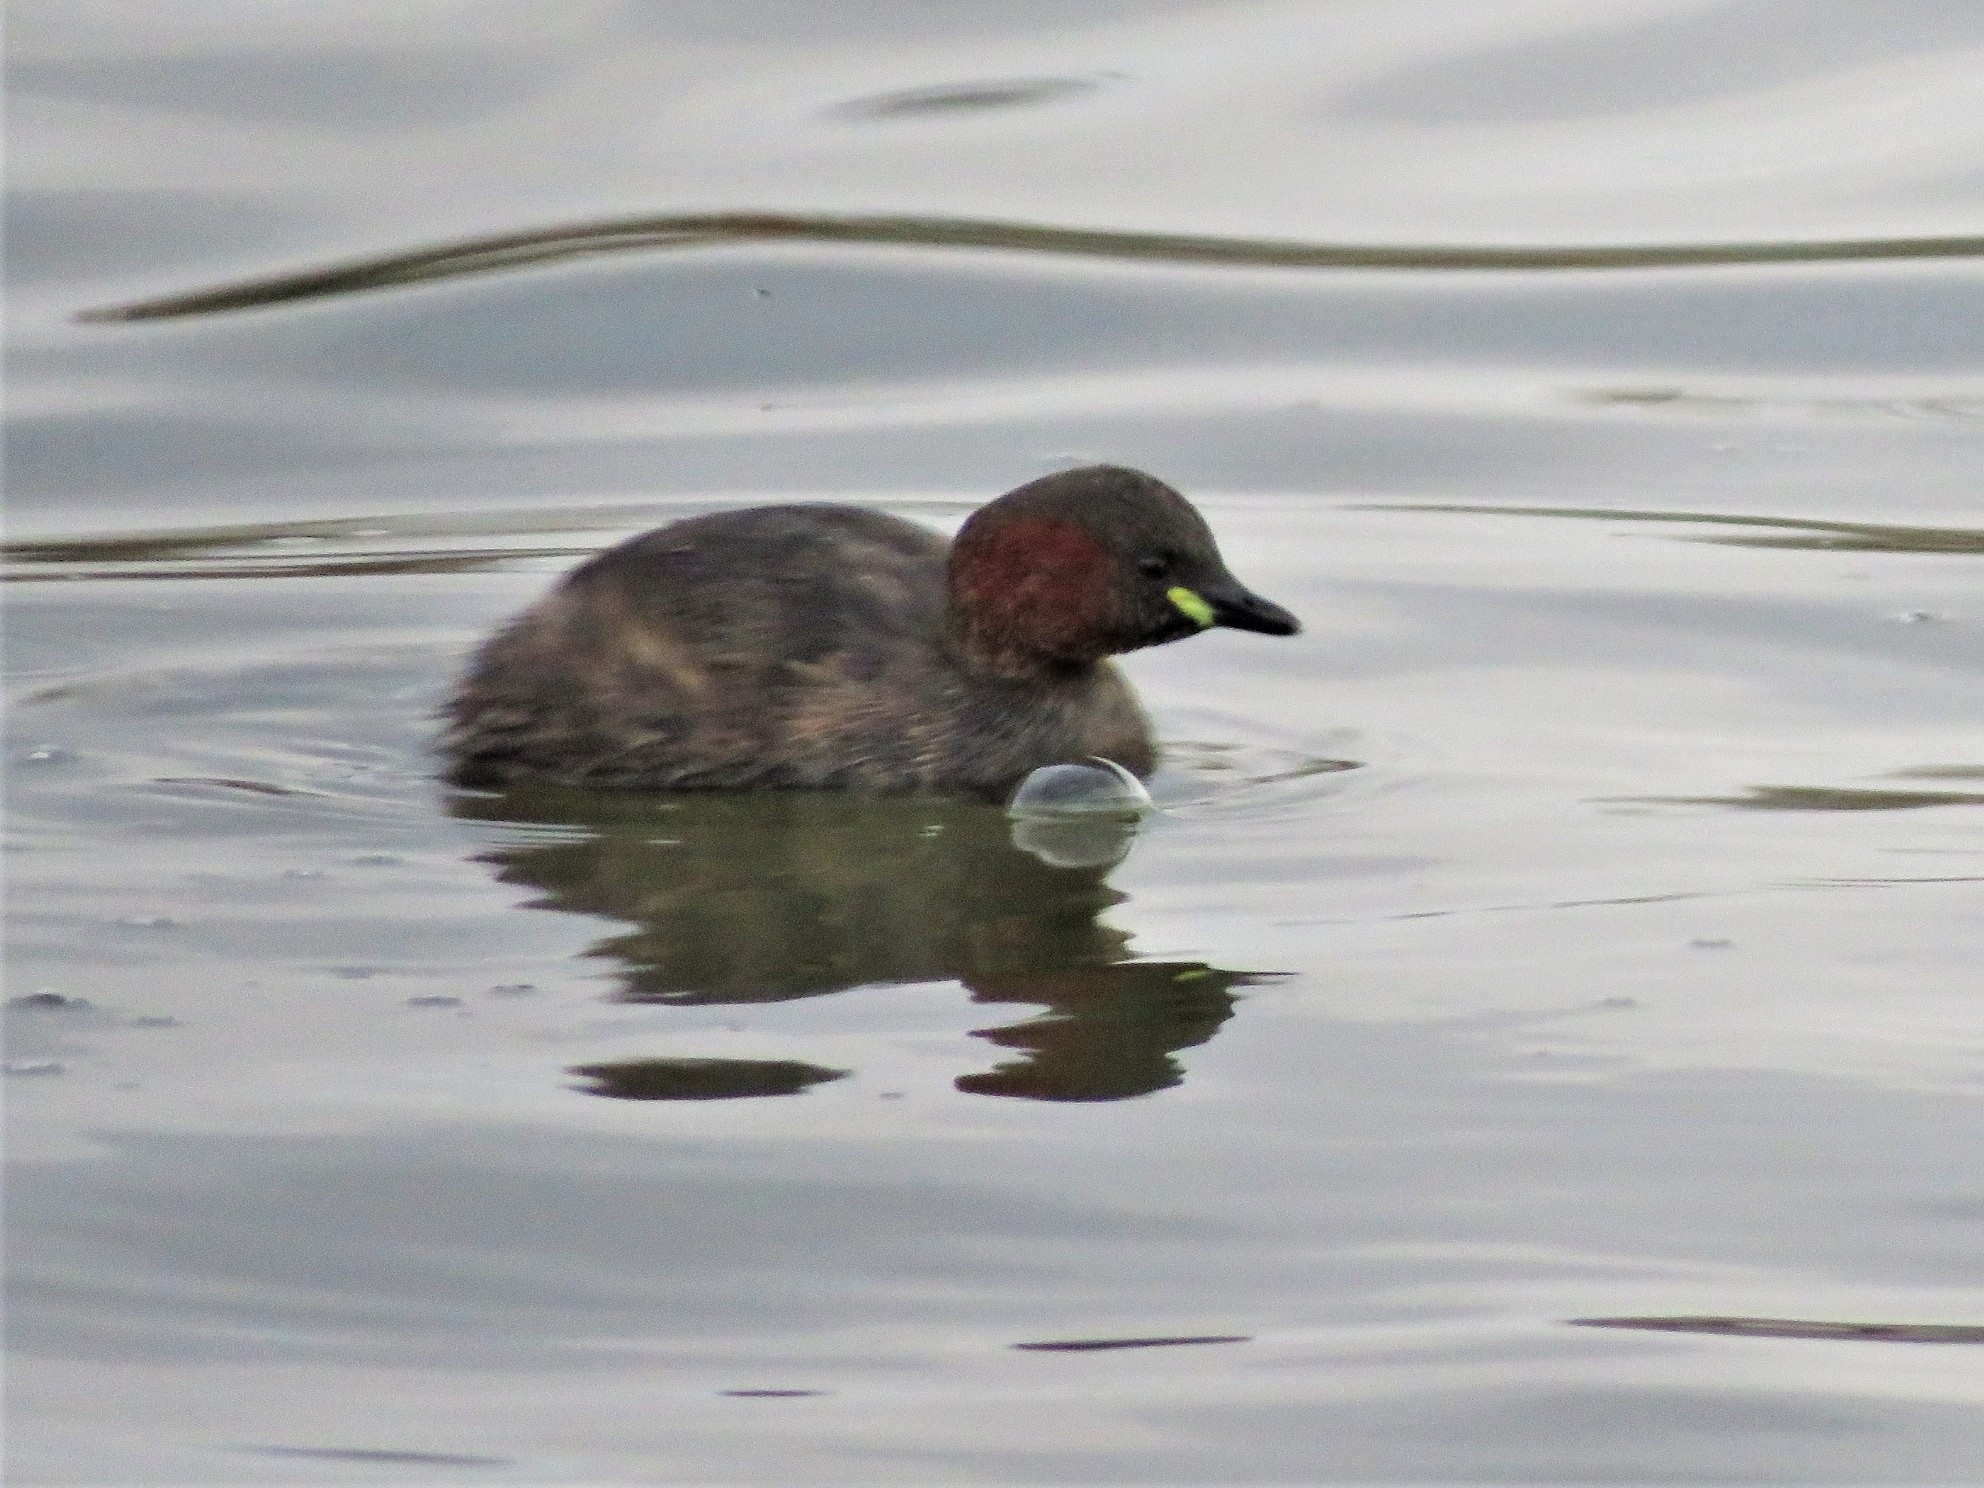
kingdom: Animalia
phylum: Chordata
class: Aves
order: Podicipediformes
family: Podicipedidae
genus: Tachybaptus
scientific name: Tachybaptus ruficollis
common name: Little grebe
